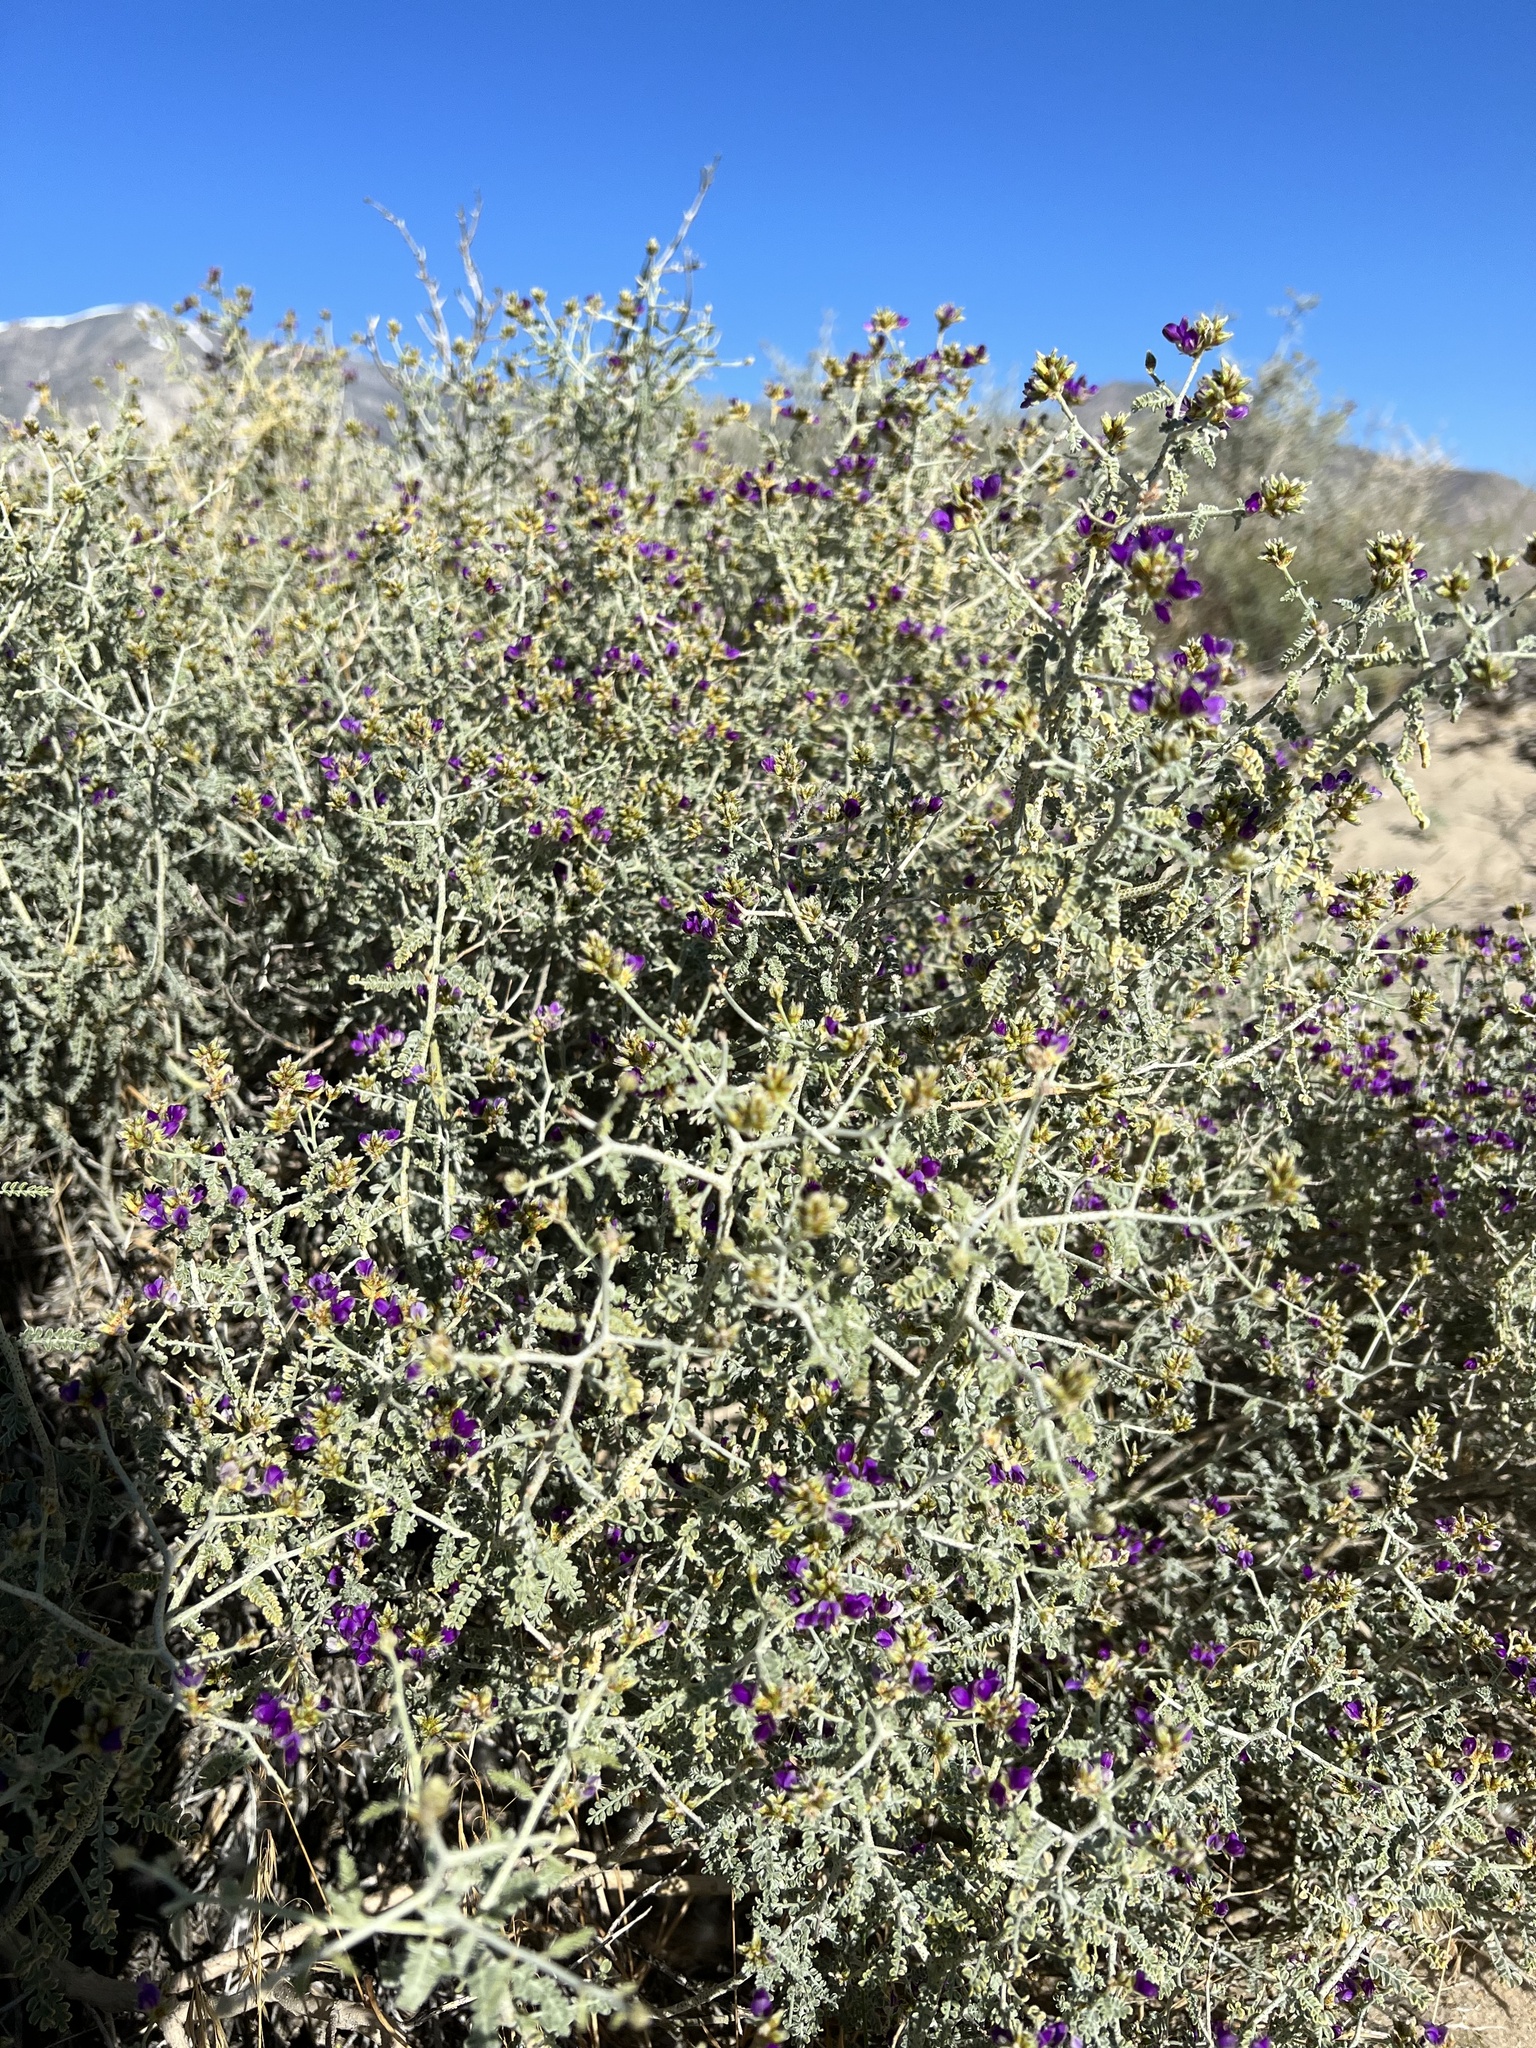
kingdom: Plantae
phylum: Tracheophyta
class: Magnoliopsida
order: Fabales
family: Fabaceae
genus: Psorothamnus
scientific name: Psorothamnus polydenius
